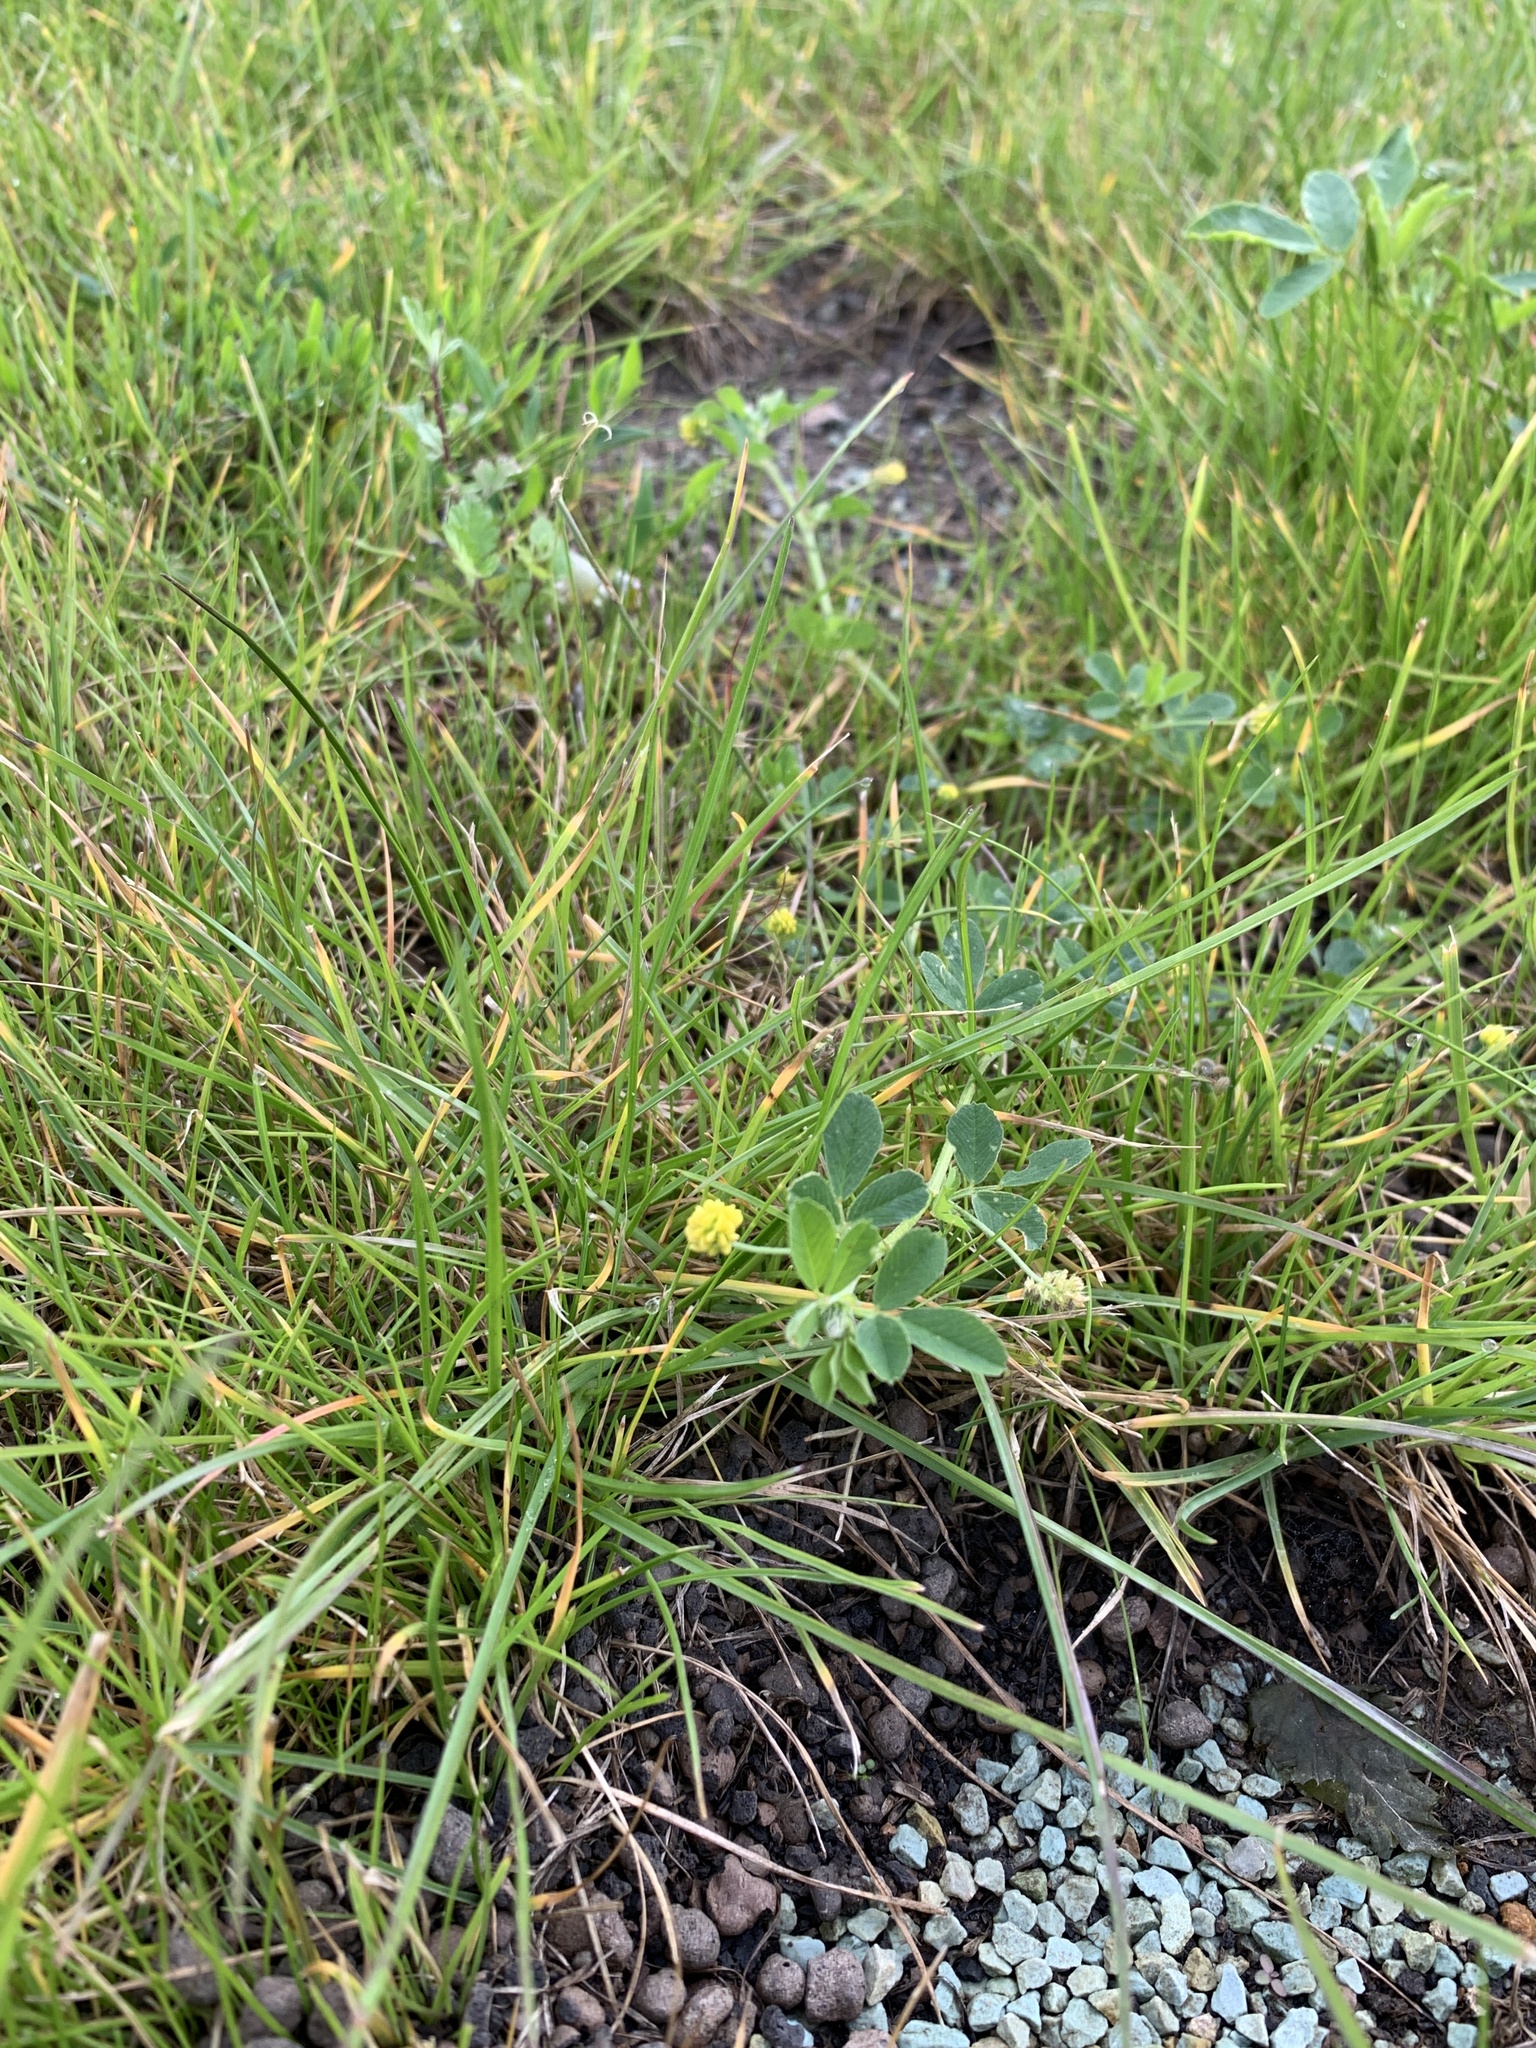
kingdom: Plantae
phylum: Tracheophyta
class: Magnoliopsida
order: Fabales
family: Fabaceae
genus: Medicago
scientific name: Medicago lupulina
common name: Black medick
